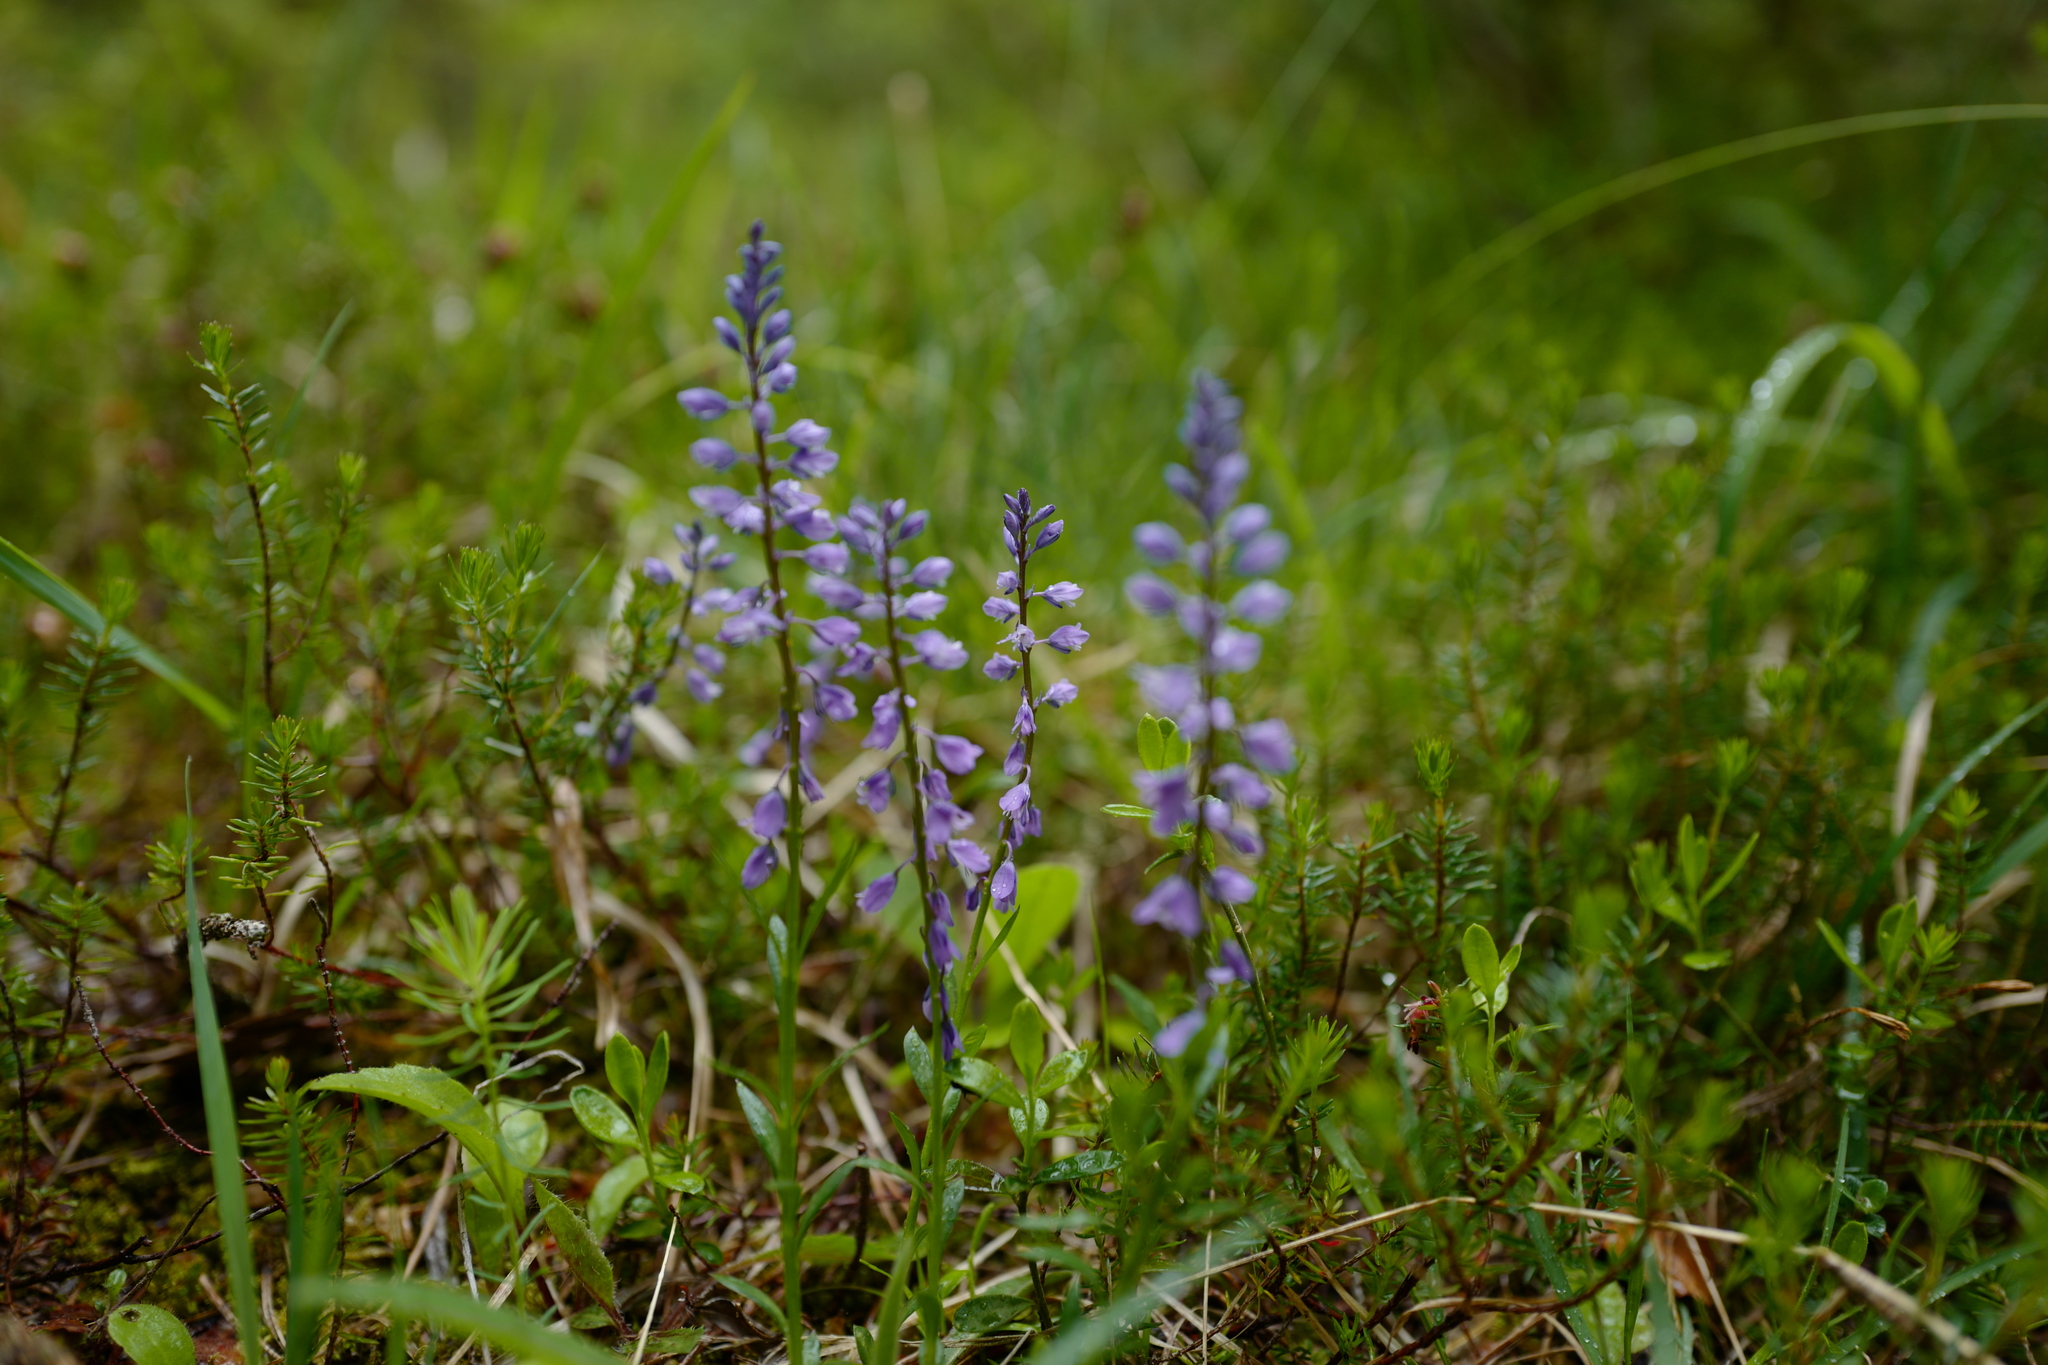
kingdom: Plantae
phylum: Tracheophyta
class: Magnoliopsida
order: Fabales
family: Polygalaceae
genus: Polygala
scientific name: Polygala vulgaris
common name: Common milkwort
